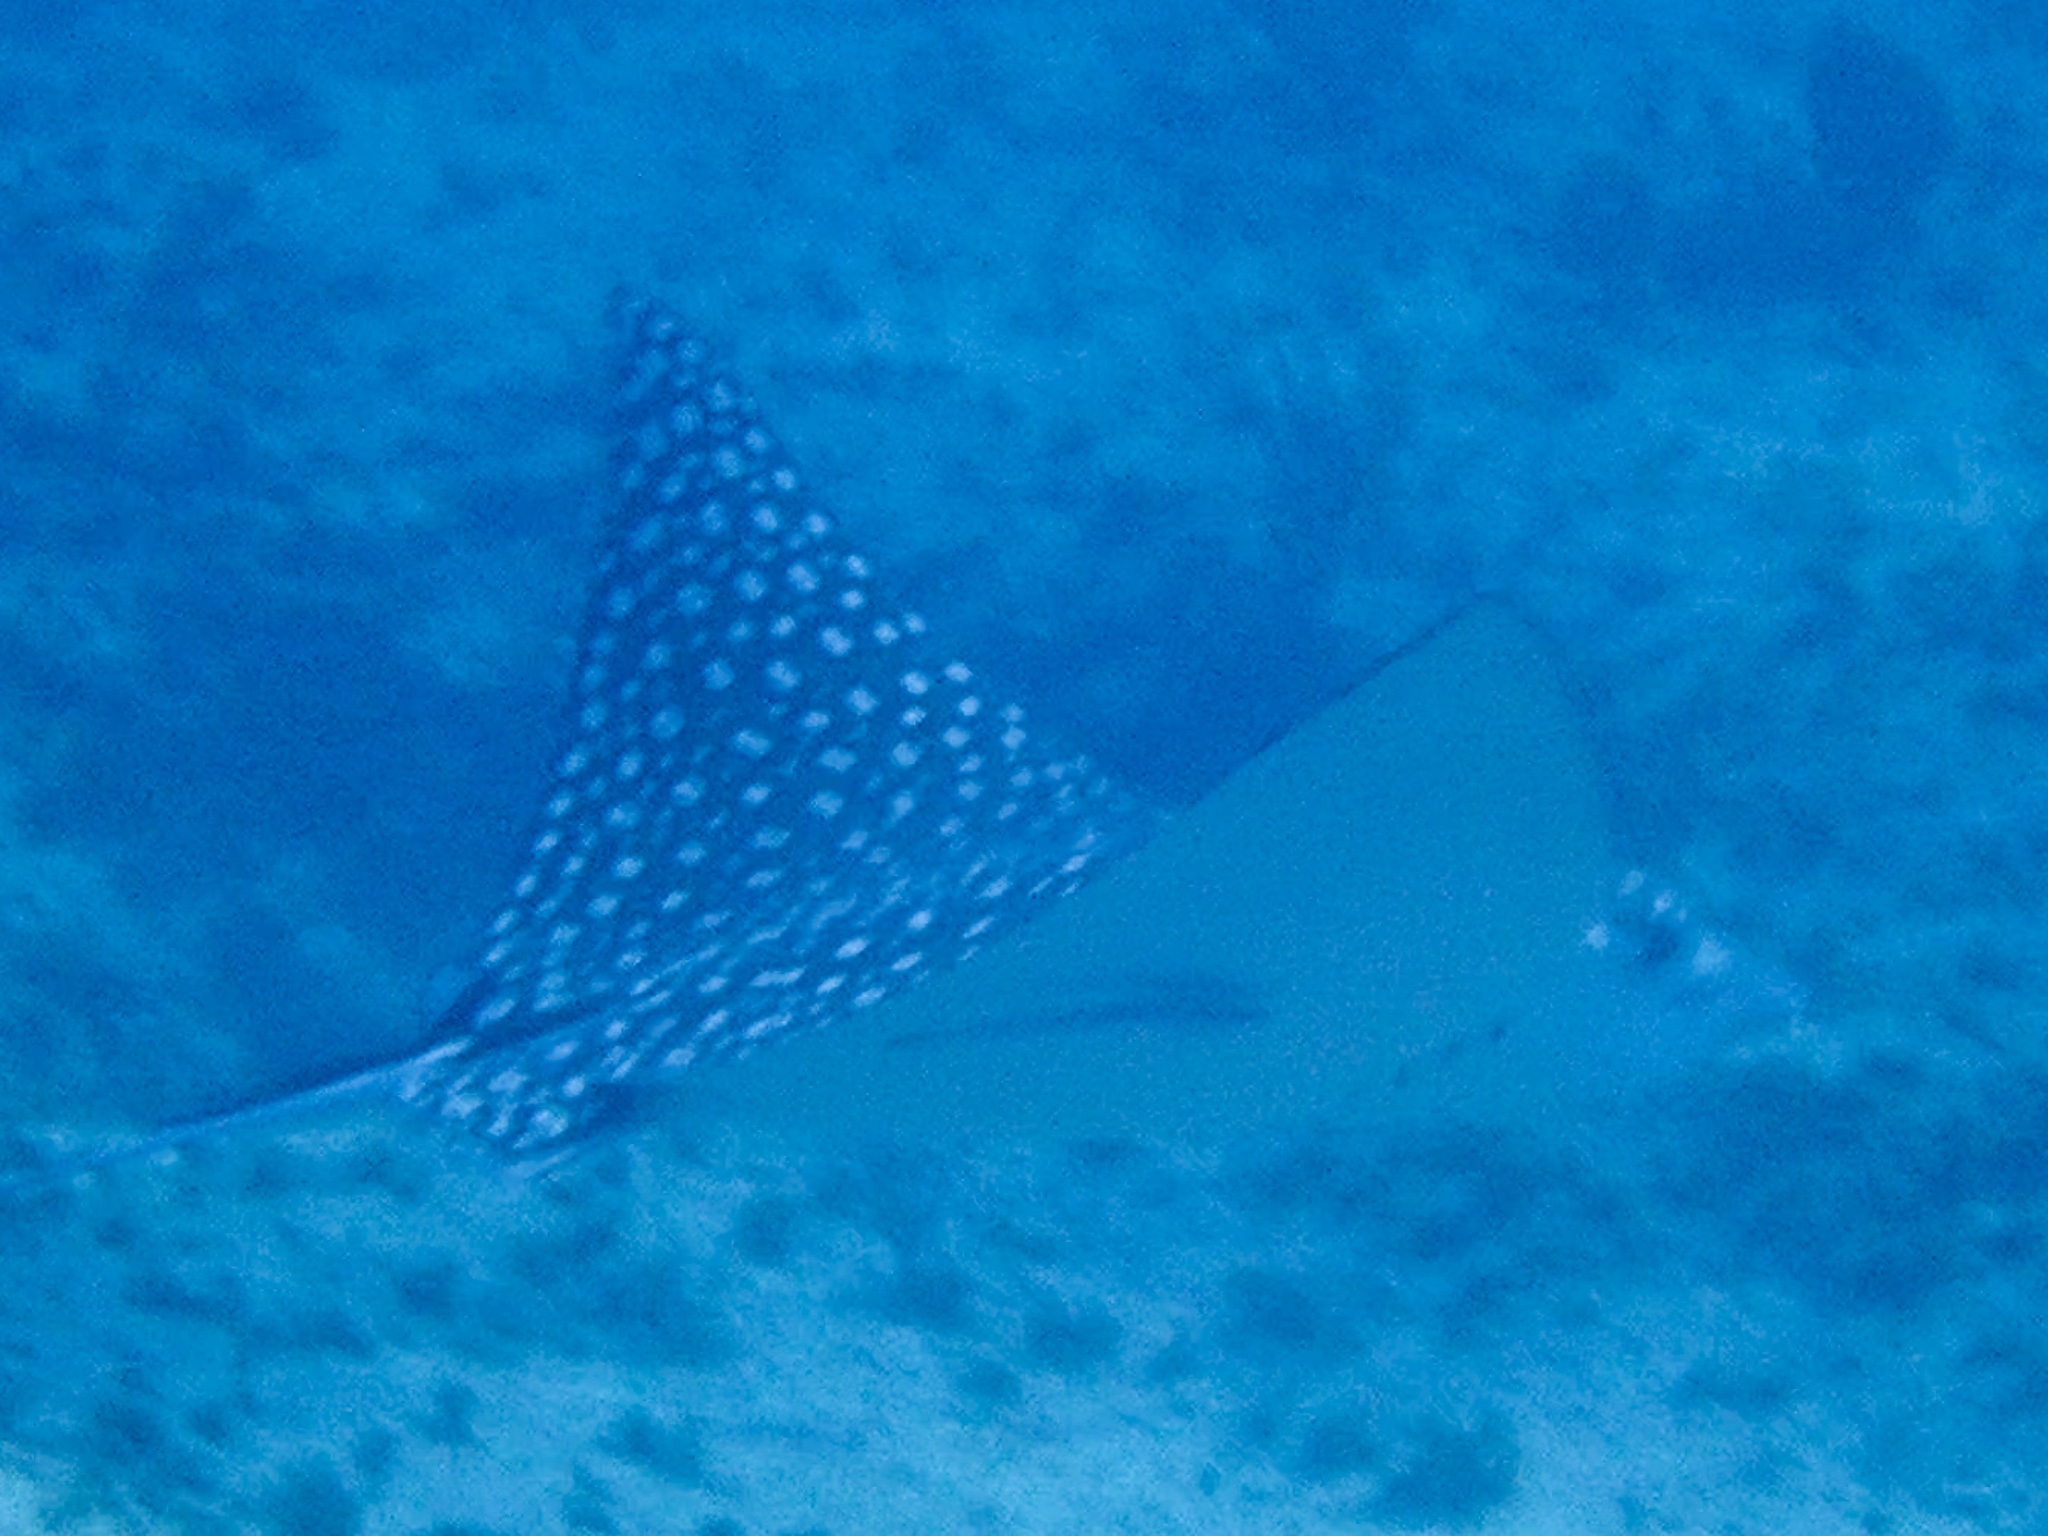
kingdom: Animalia
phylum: Chordata
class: Elasmobranchii
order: Myliobatiformes
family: Myliobatidae
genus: Aetobatus
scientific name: Aetobatus narinari
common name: Spotted eagle ray
